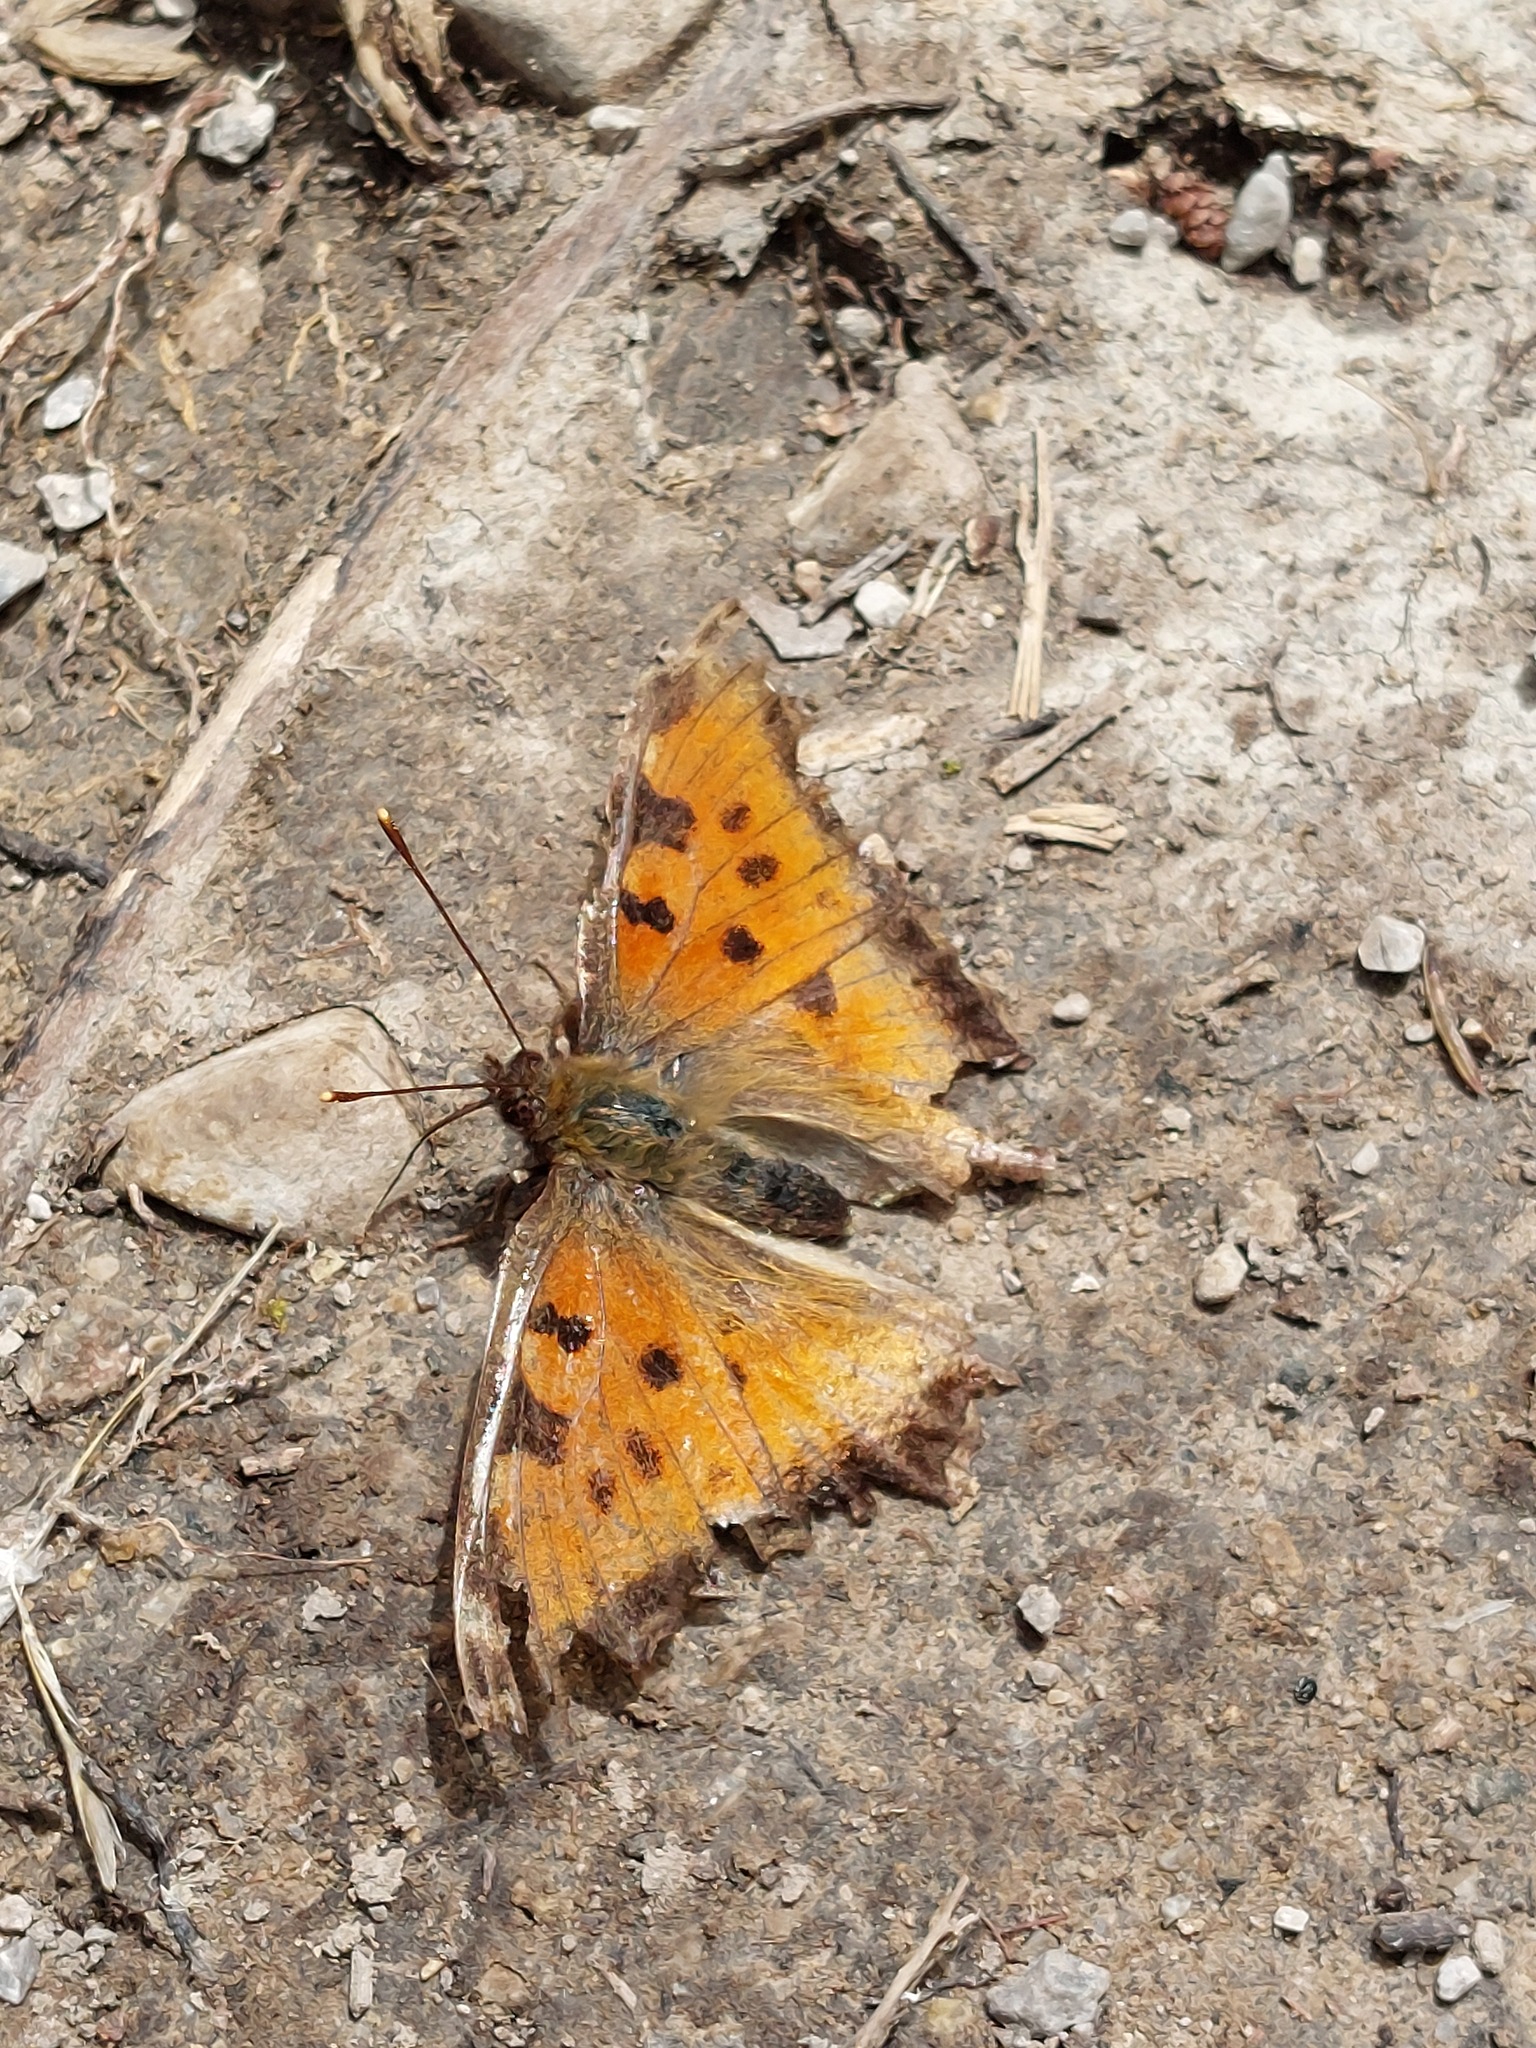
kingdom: Animalia
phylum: Arthropoda
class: Insecta
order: Lepidoptera
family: Nymphalidae
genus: Nymphalis
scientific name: Nymphalis polychloros
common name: Large tortoiseshell
